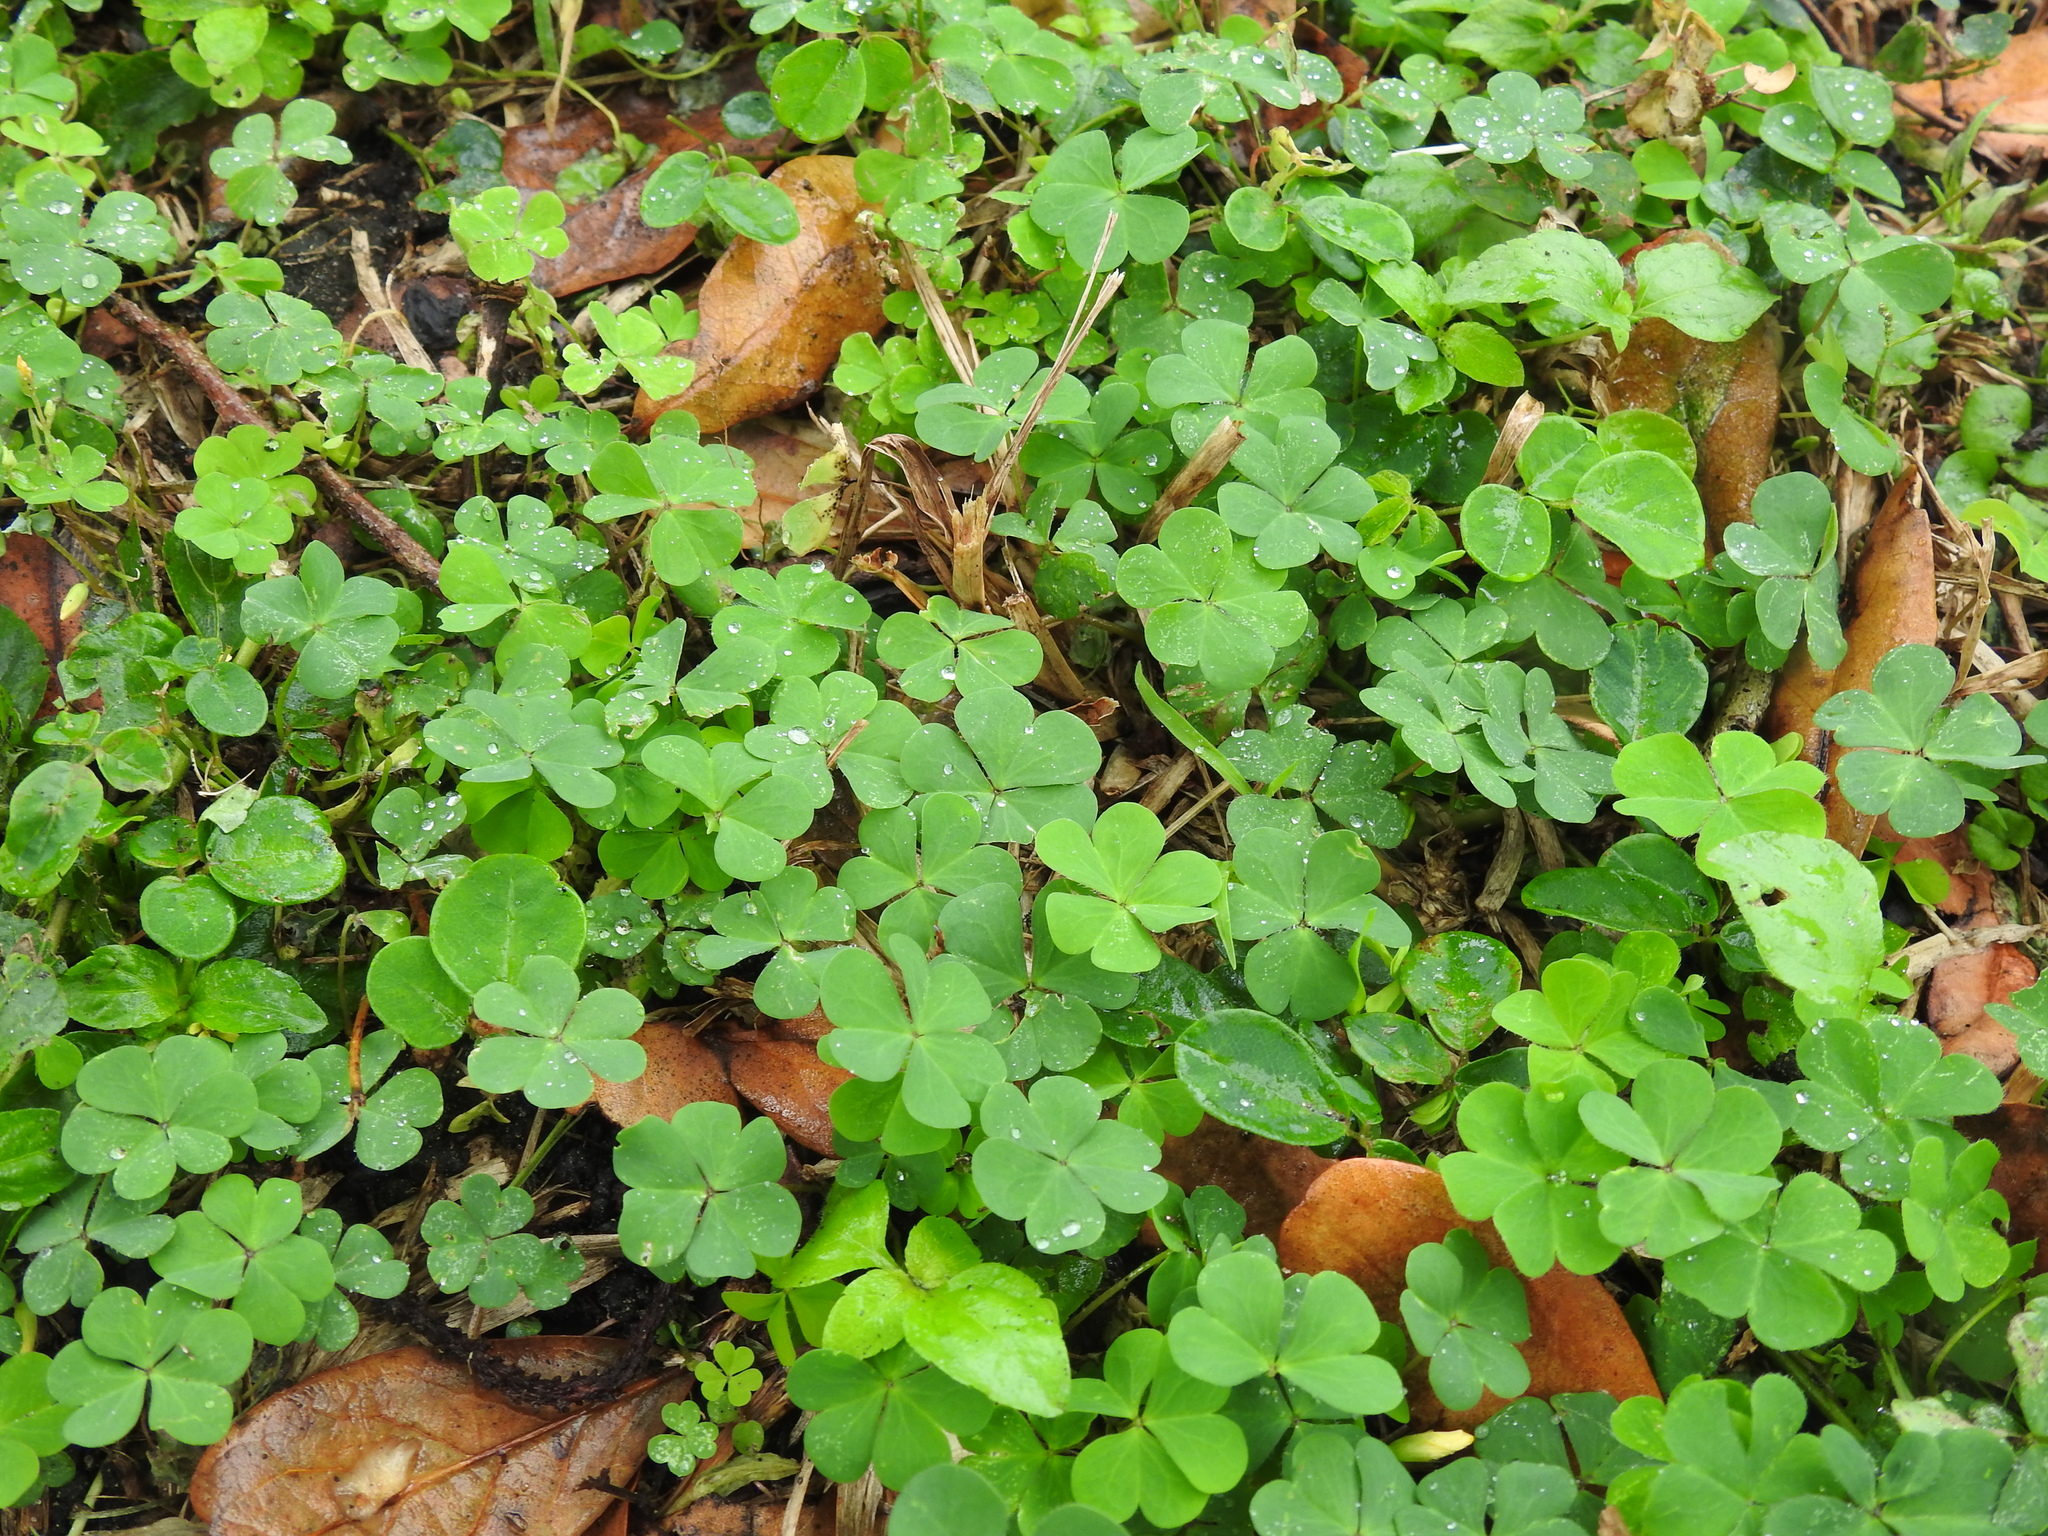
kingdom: Plantae
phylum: Tracheophyta
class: Magnoliopsida
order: Oxalidales
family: Oxalidaceae
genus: Oxalis
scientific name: Oxalis corniculata
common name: Procumbent yellow-sorrel
